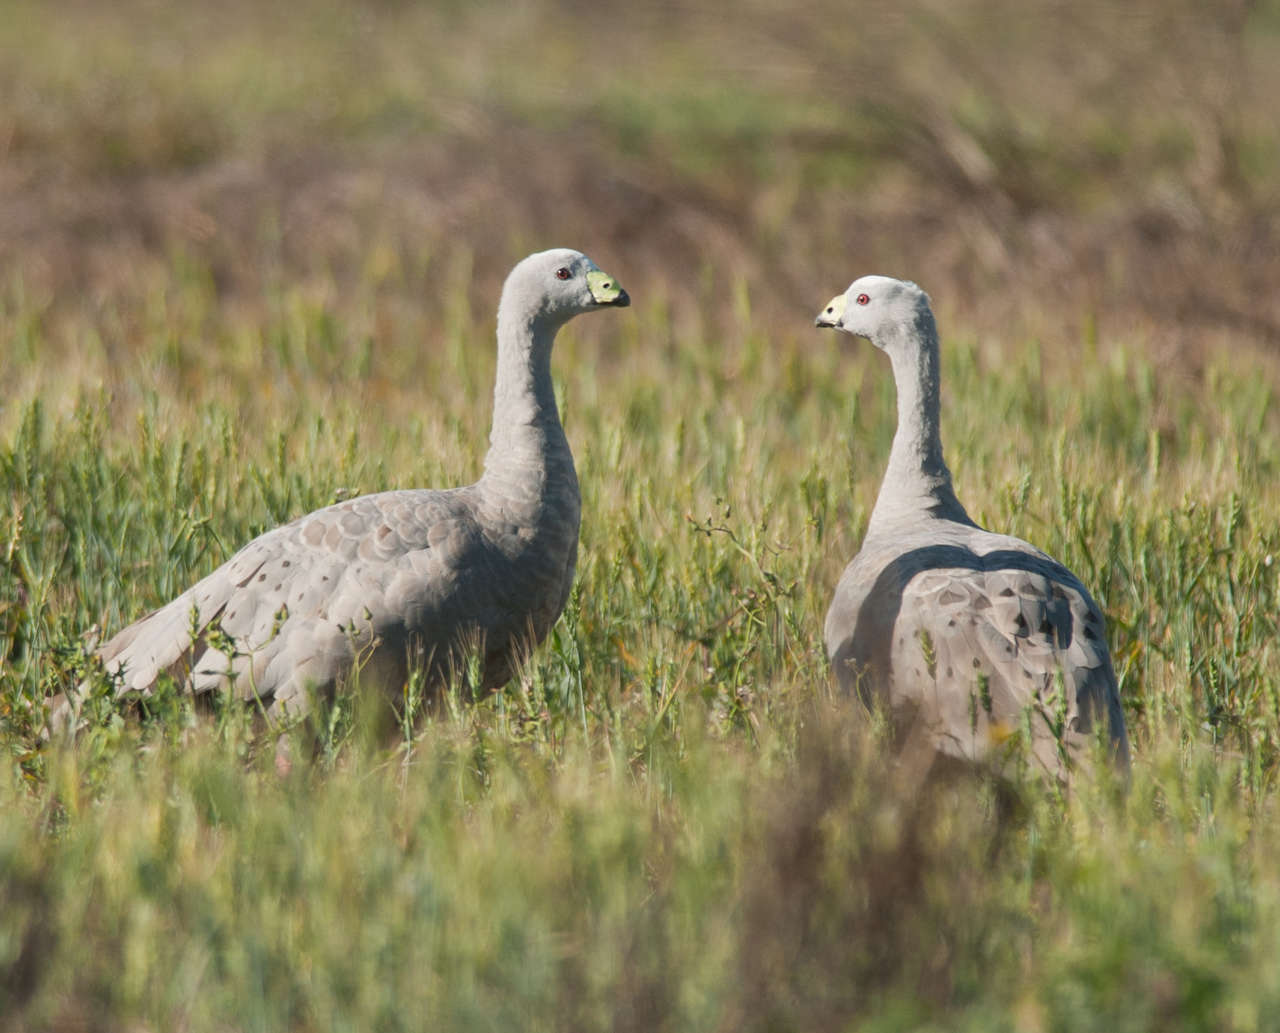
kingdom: Animalia
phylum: Chordata
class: Aves
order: Anseriformes
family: Anatidae
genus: Cereopsis
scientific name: Cereopsis novaehollandiae
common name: Cape barren goose
